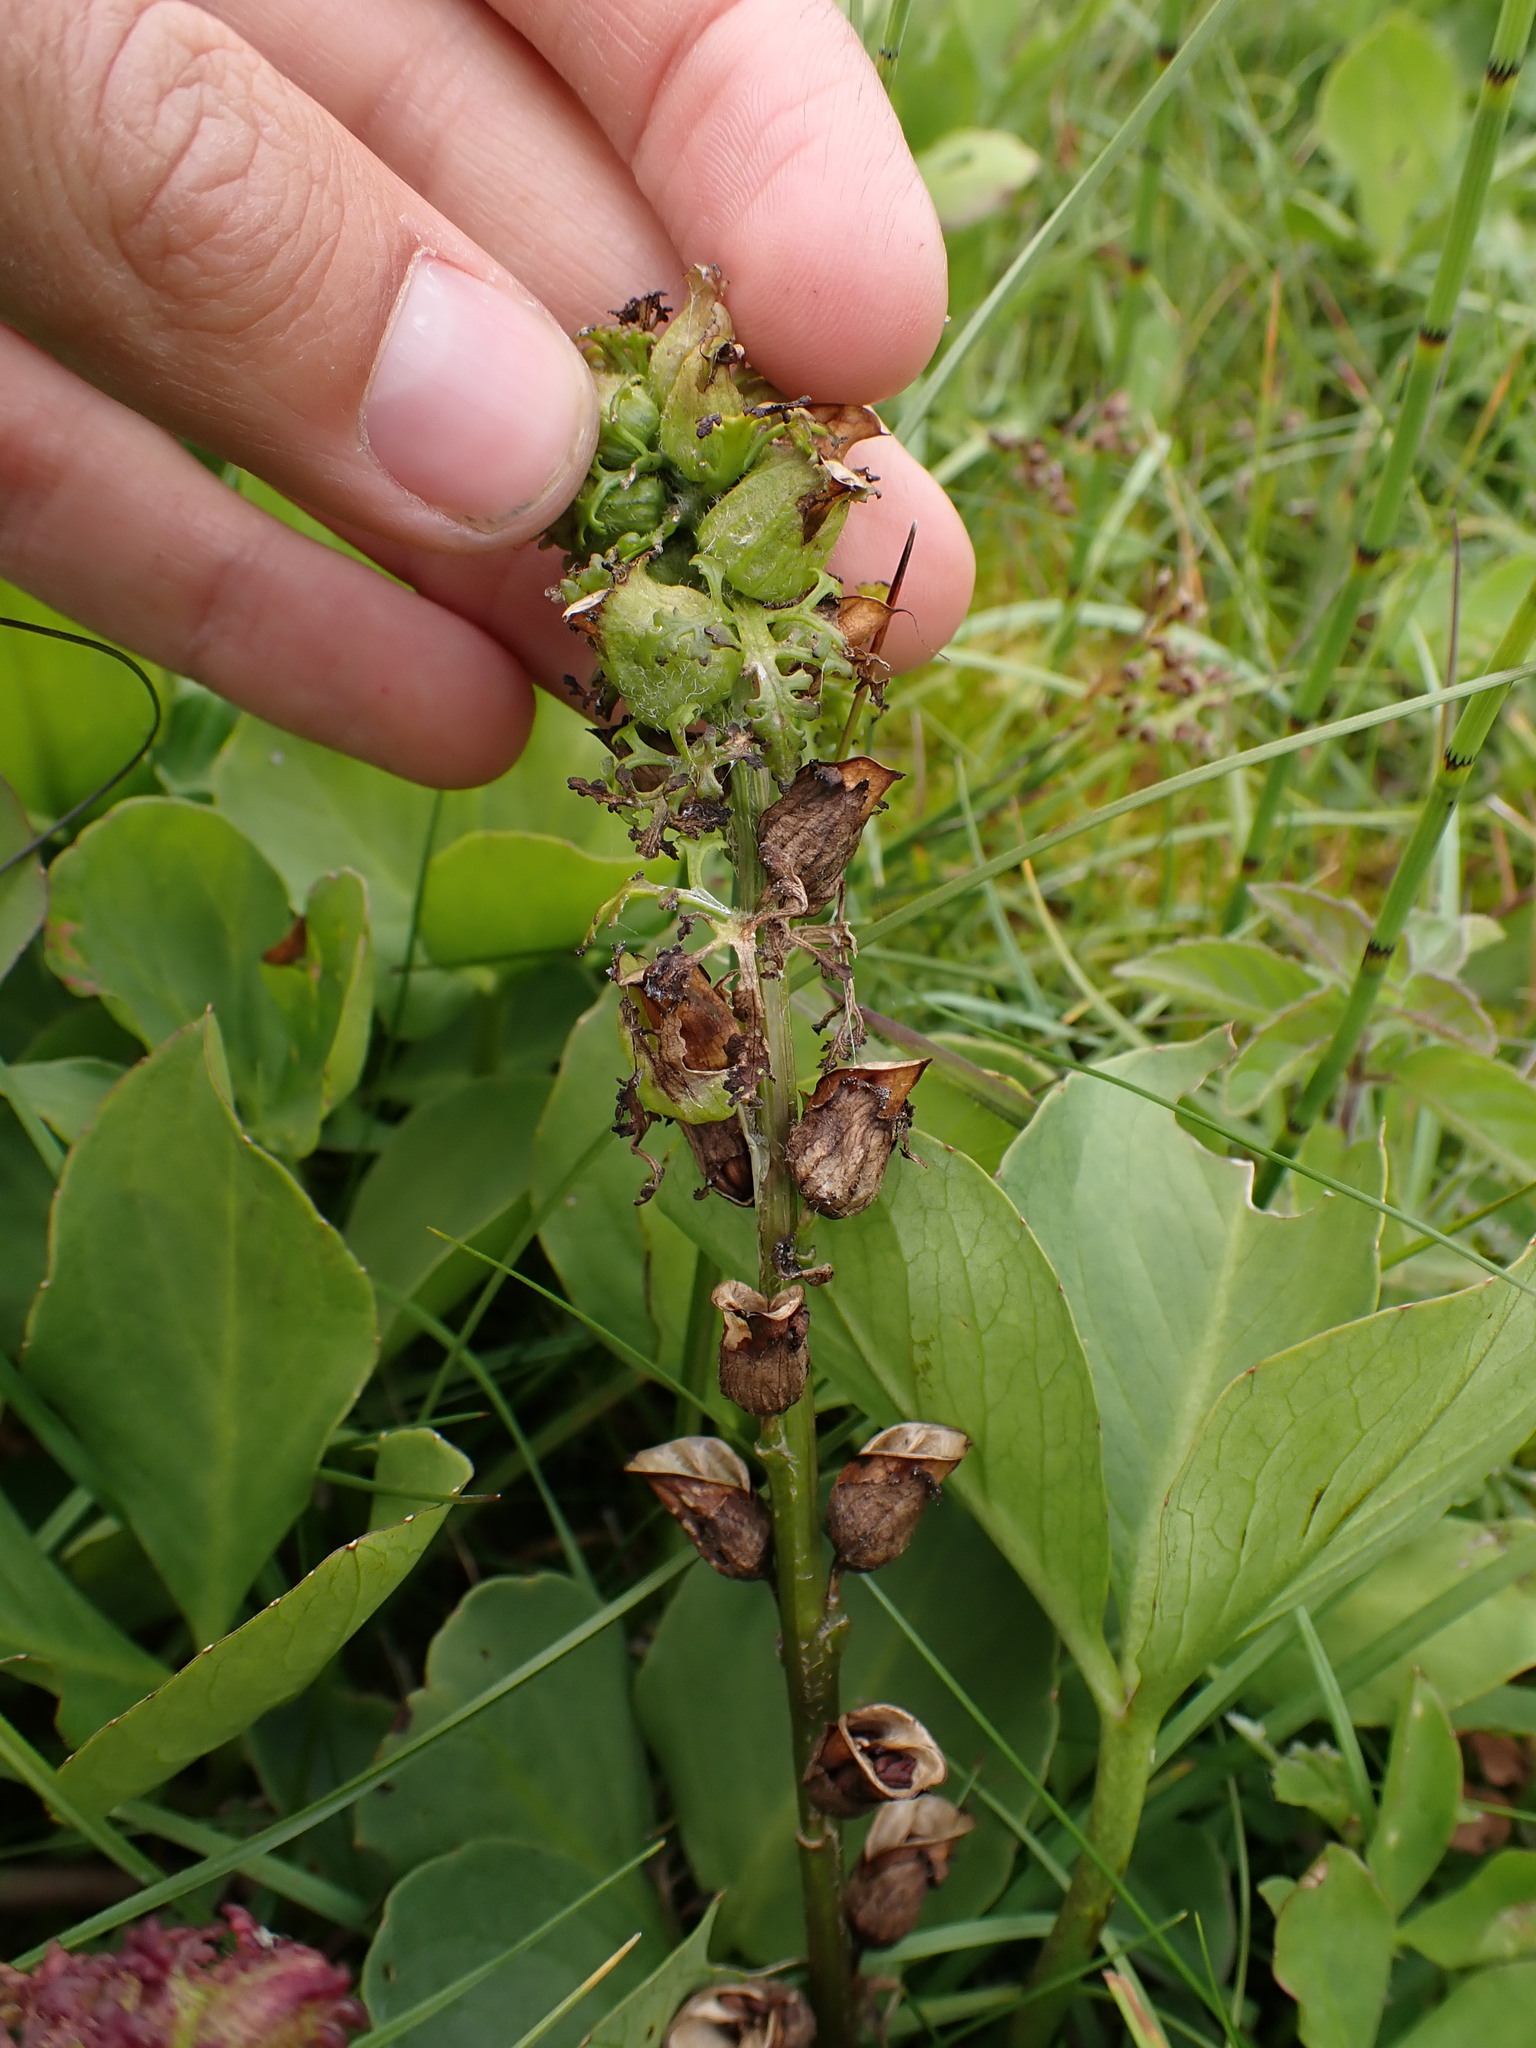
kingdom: Plantae
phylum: Tracheophyta
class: Magnoliopsida
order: Lamiales
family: Orobanchaceae
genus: Pedicularis
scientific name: Pedicularis palustris
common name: Marsh lousewort
